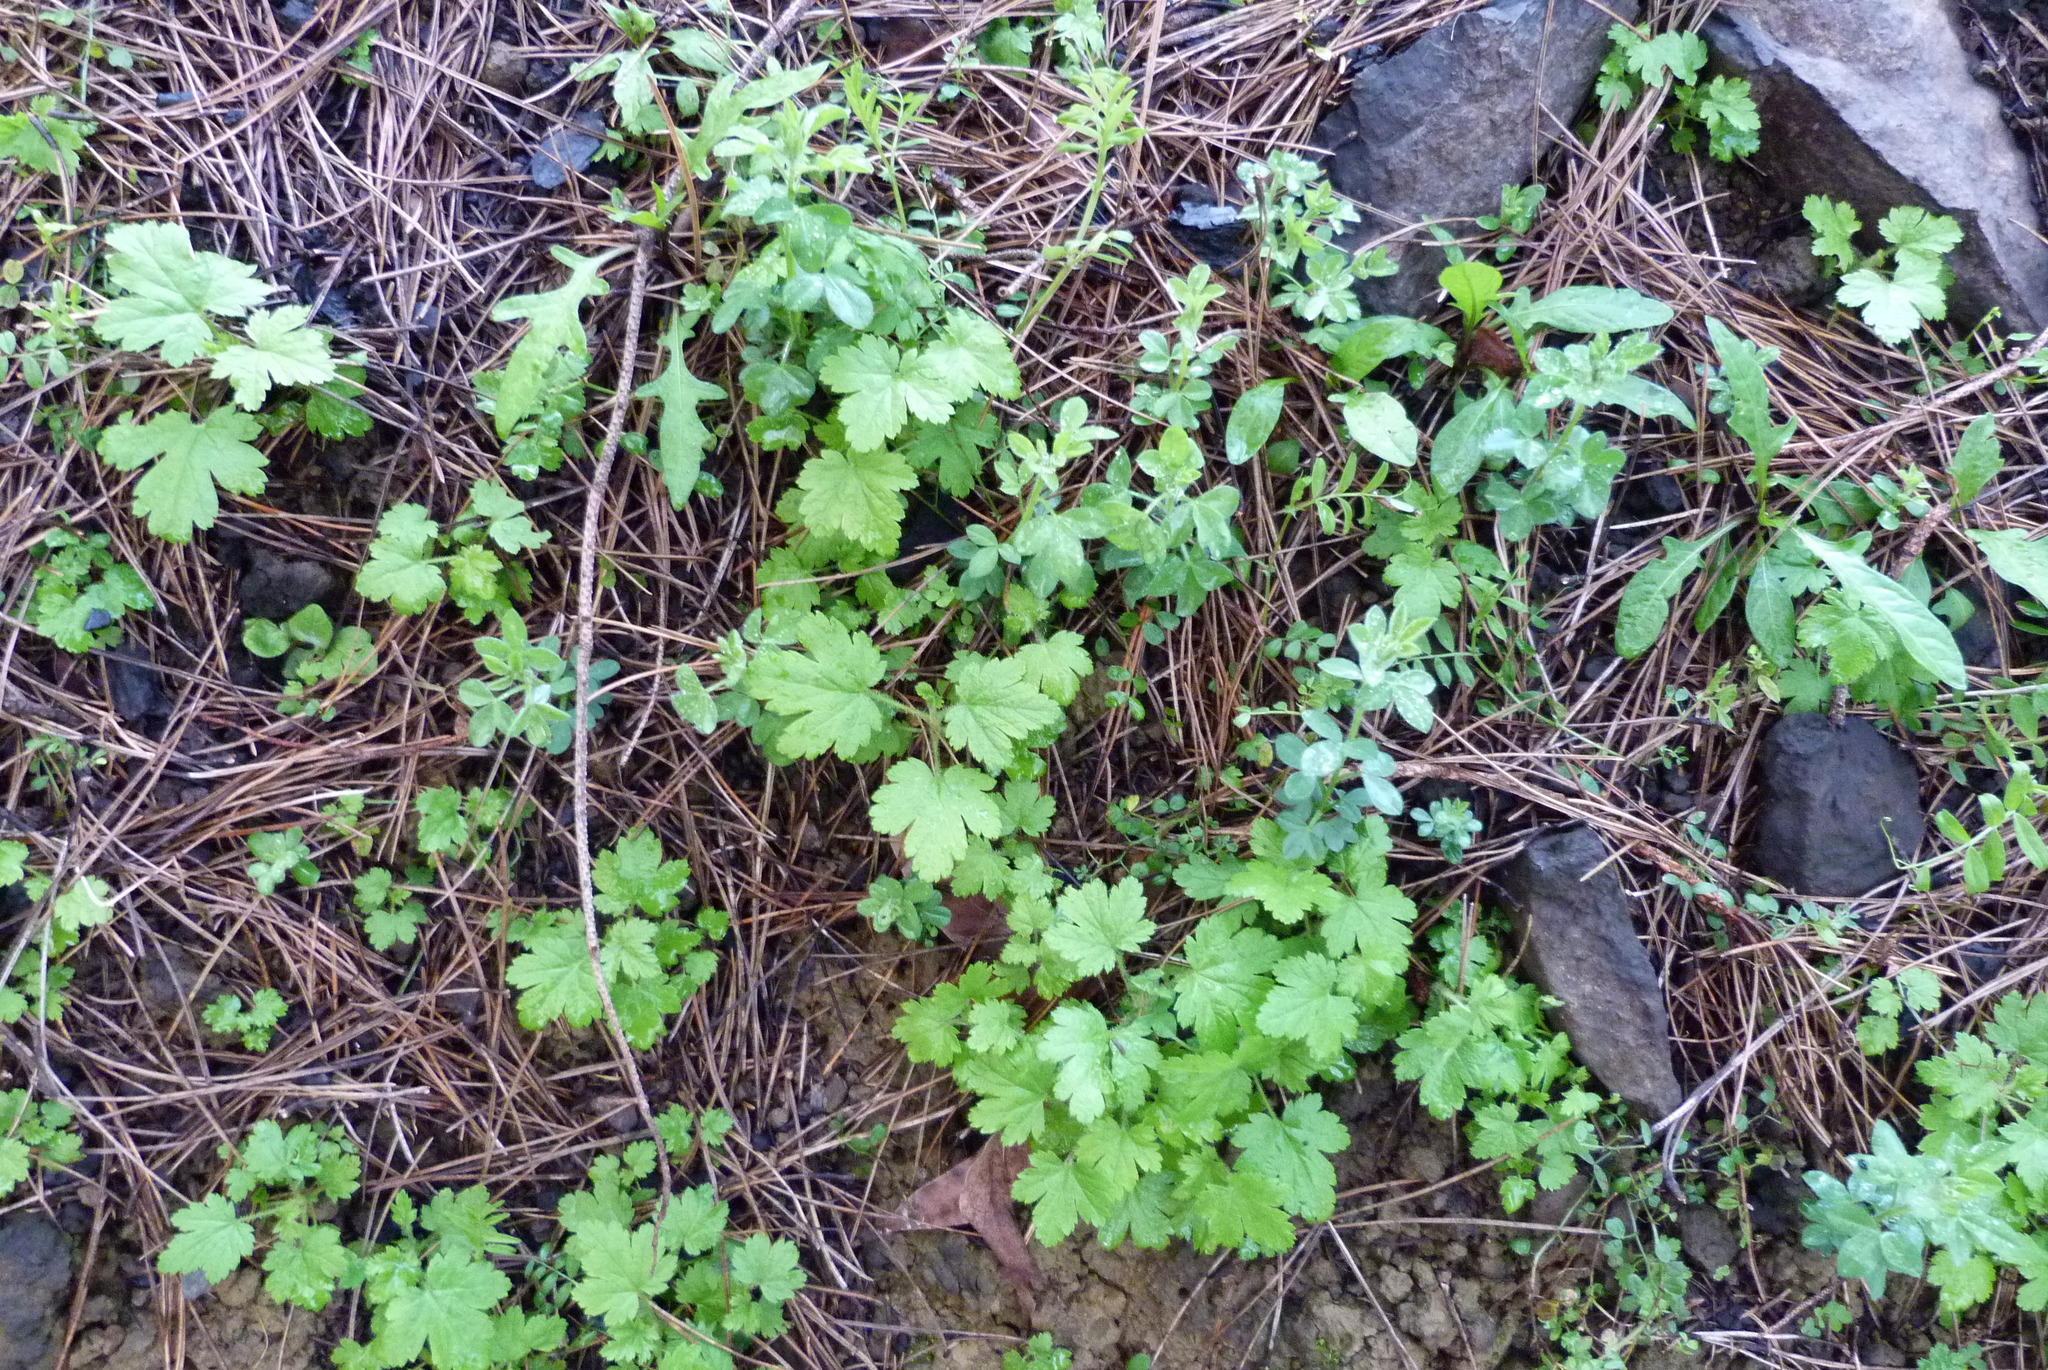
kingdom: Plantae
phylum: Tracheophyta
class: Magnoliopsida
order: Saxifragales
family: Grossulariaceae
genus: Ribes
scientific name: Ribes sanguineum
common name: Flowering currant
